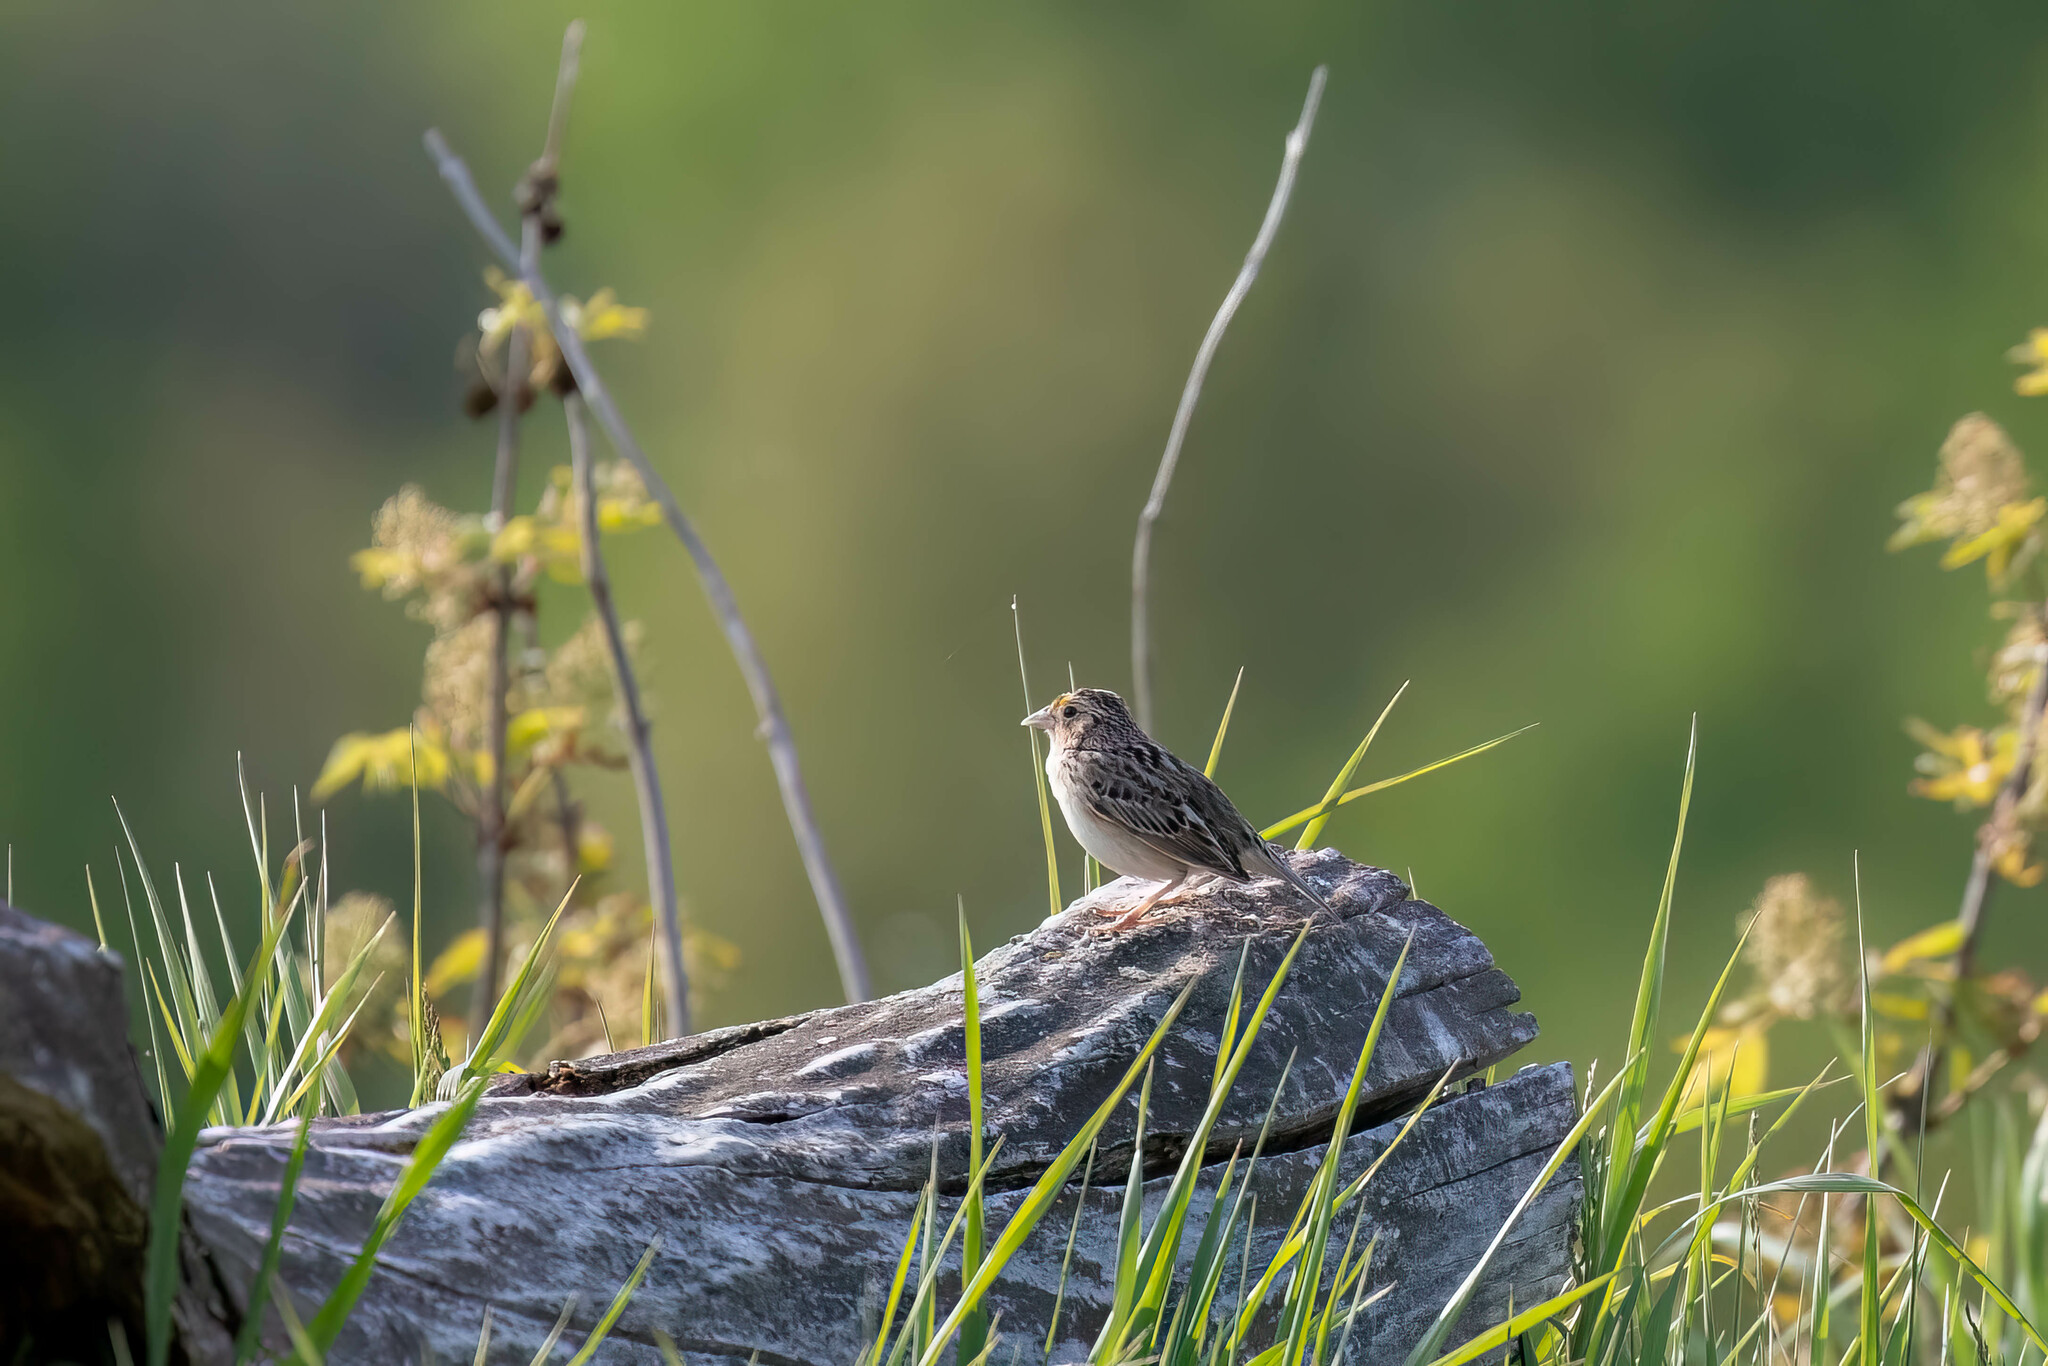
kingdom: Animalia
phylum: Chordata
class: Aves
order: Passeriformes
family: Passerellidae
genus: Ammodramus
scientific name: Ammodramus savannarum
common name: Grasshopper sparrow
